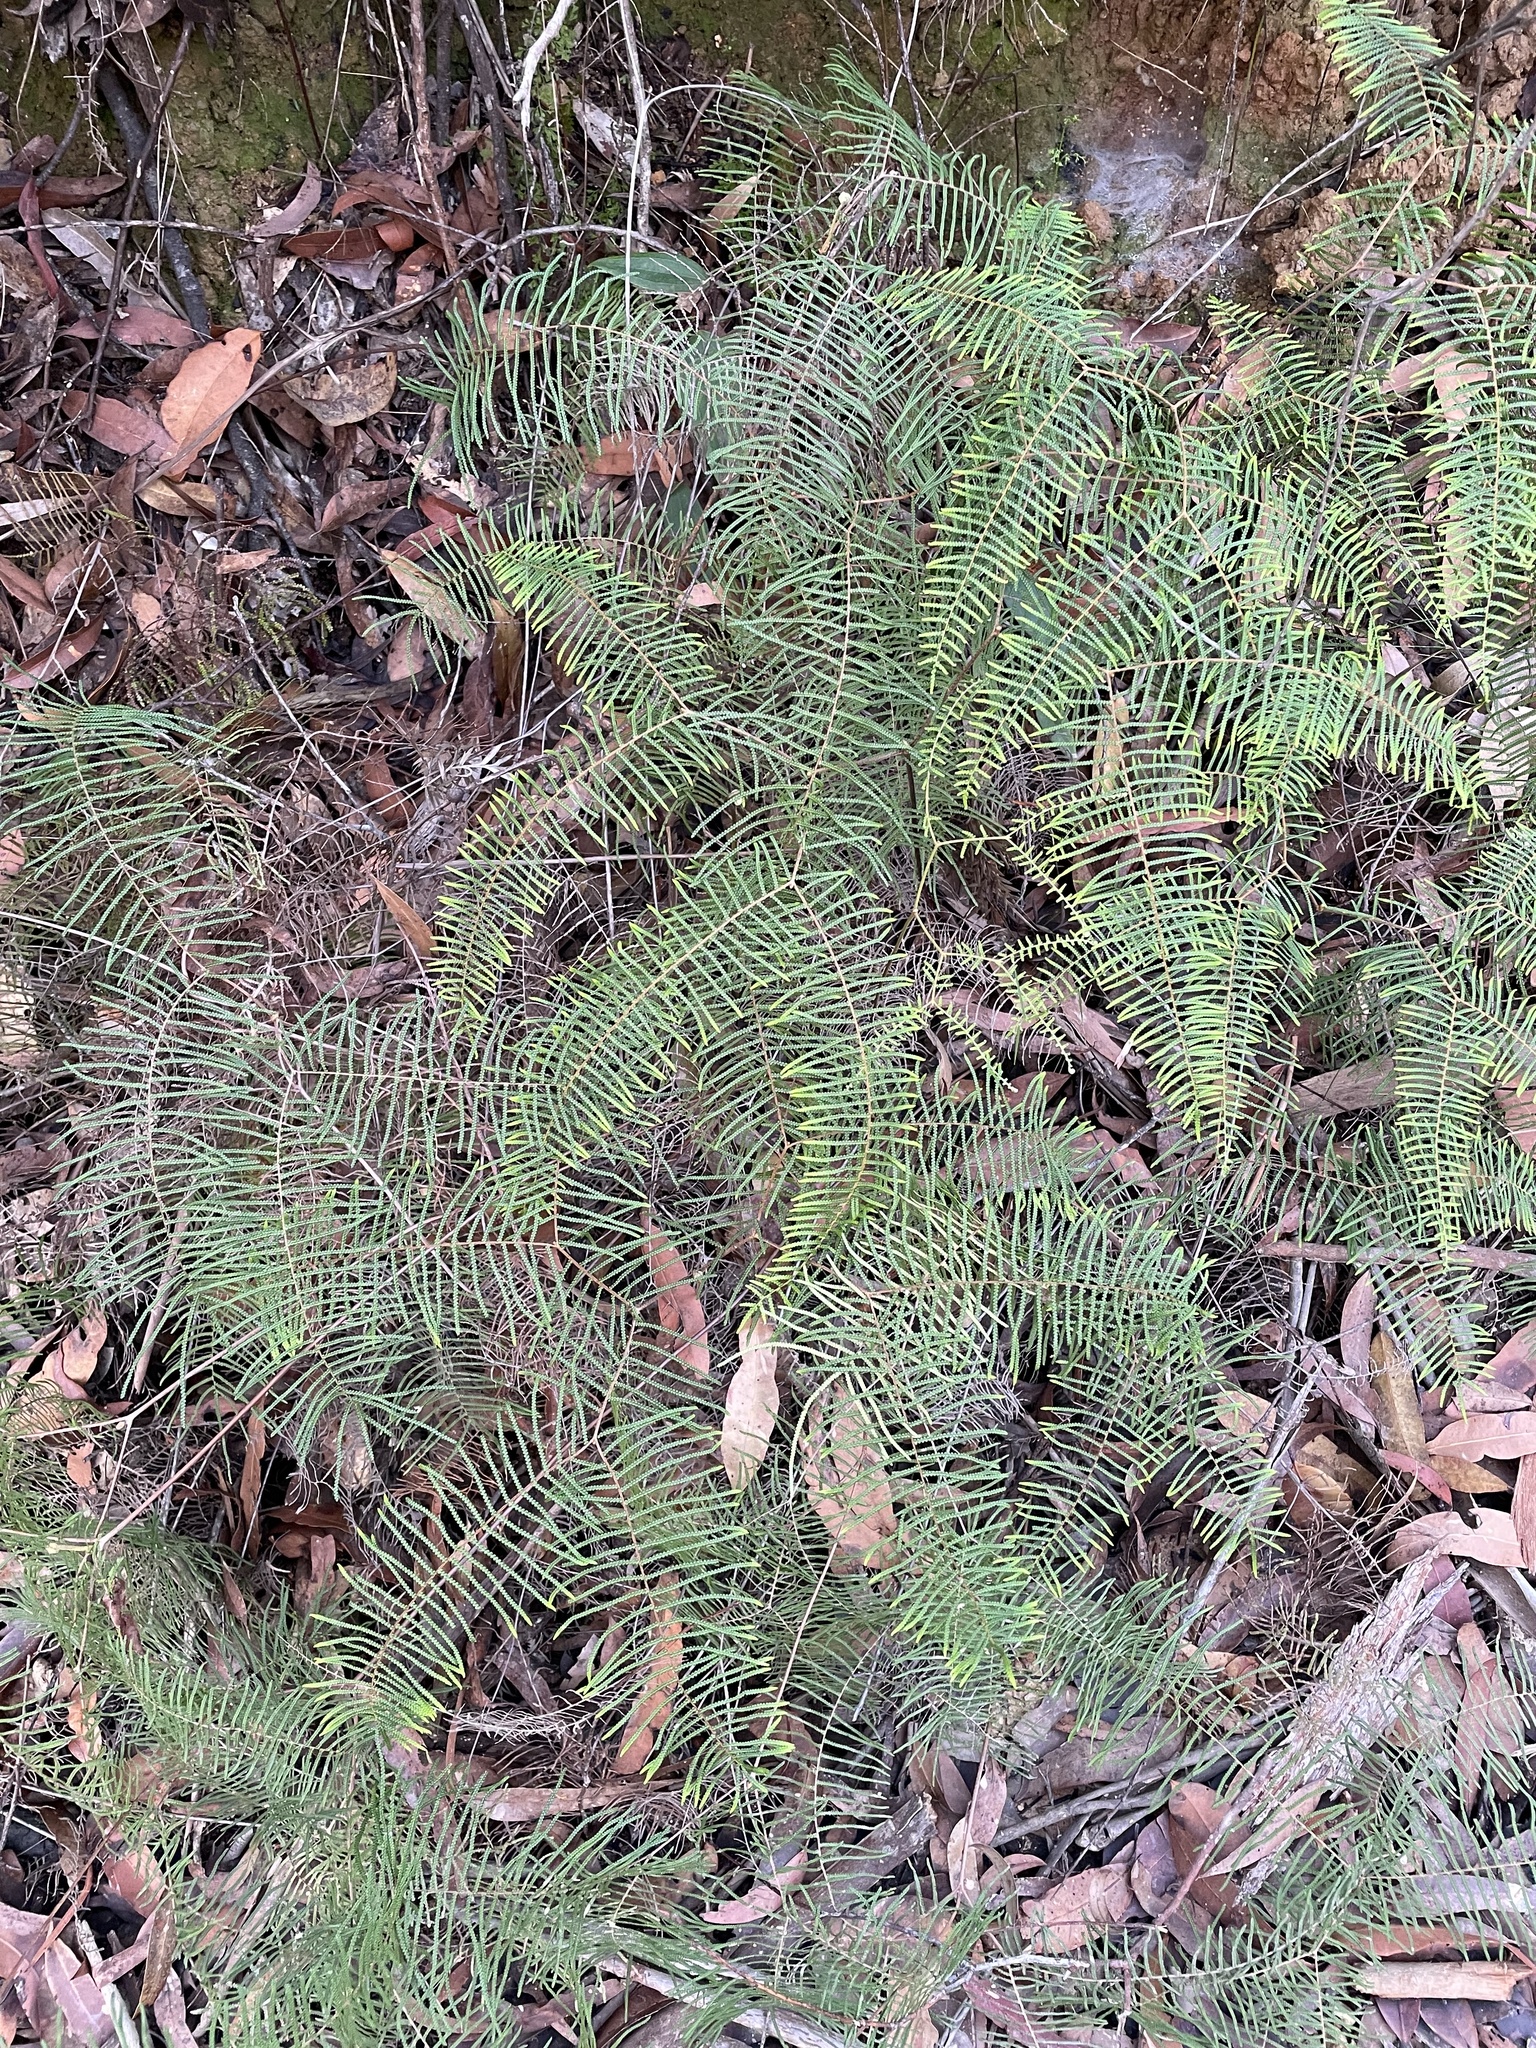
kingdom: Plantae
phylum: Tracheophyta
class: Polypodiopsida
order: Gleicheniales
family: Gleicheniaceae
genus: Gleichenia
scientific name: Gleichenia dicarpa
